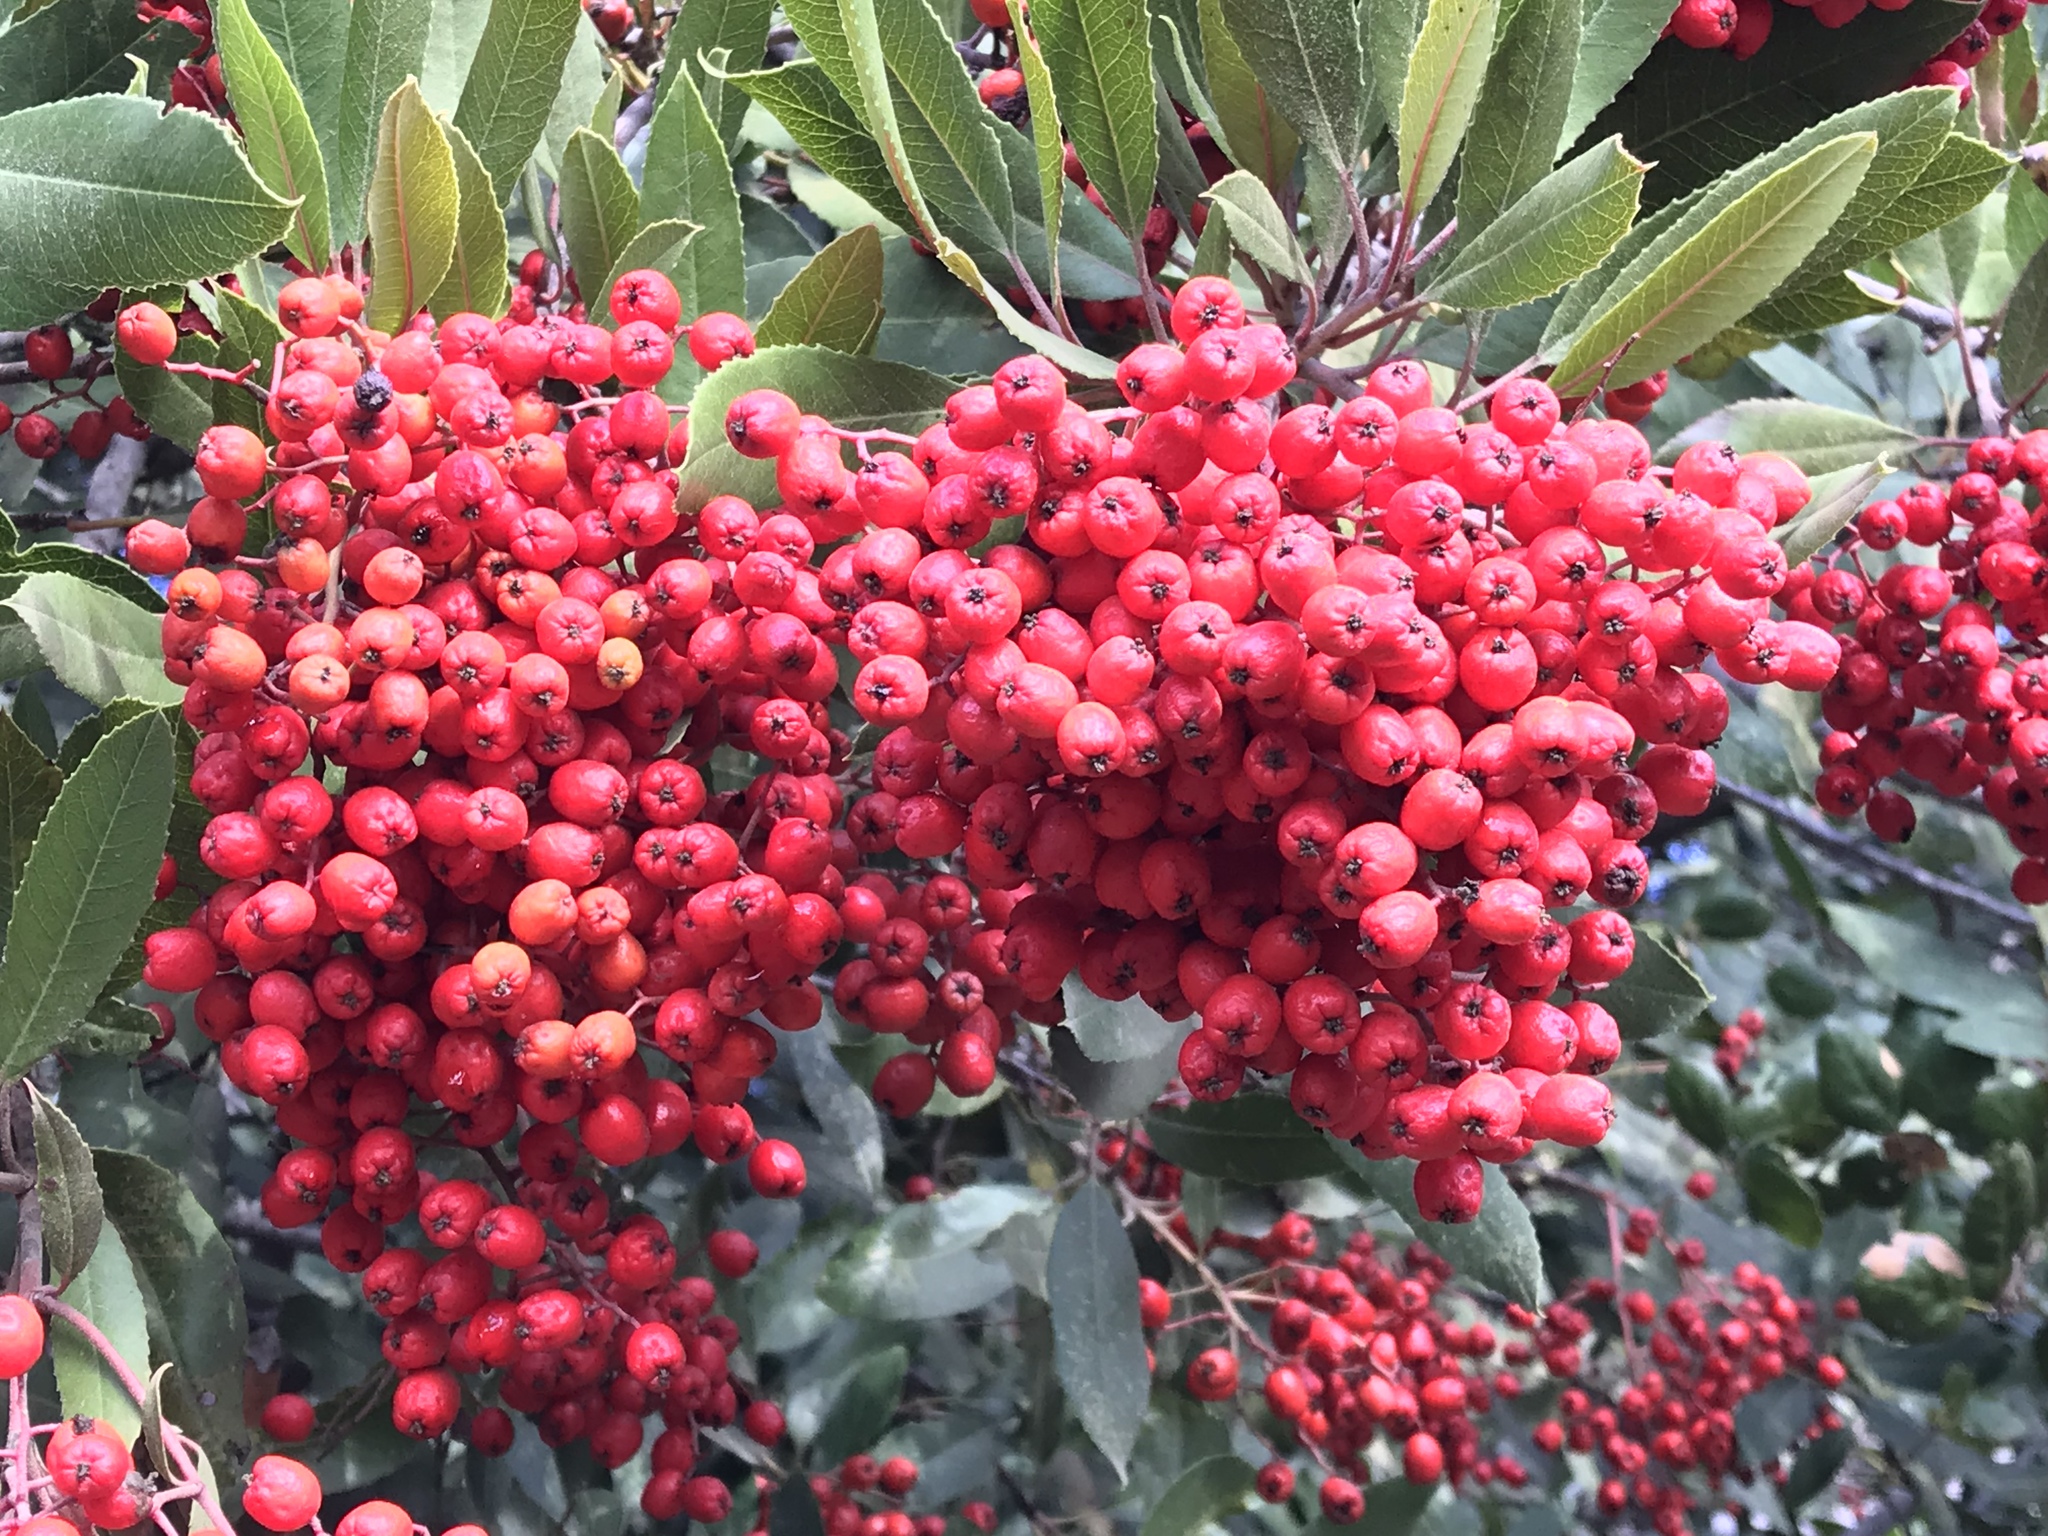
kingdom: Plantae
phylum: Tracheophyta
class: Magnoliopsida
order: Rosales
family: Rosaceae
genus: Heteromeles
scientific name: Heteromeles arbutifolia
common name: California-holly
